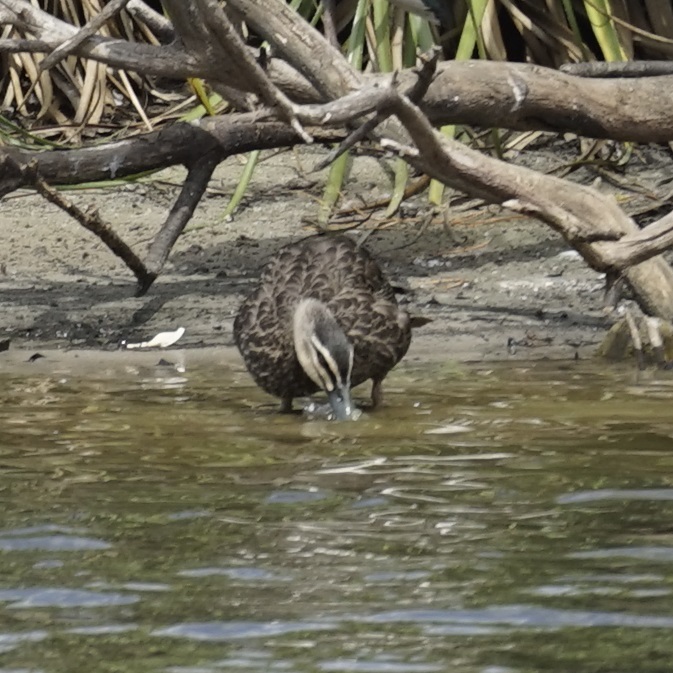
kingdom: Animalia
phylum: Chordata
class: Aves
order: Anseriformes
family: Anatidae
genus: Anas
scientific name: Anas superciliosa
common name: Pacific black duck
